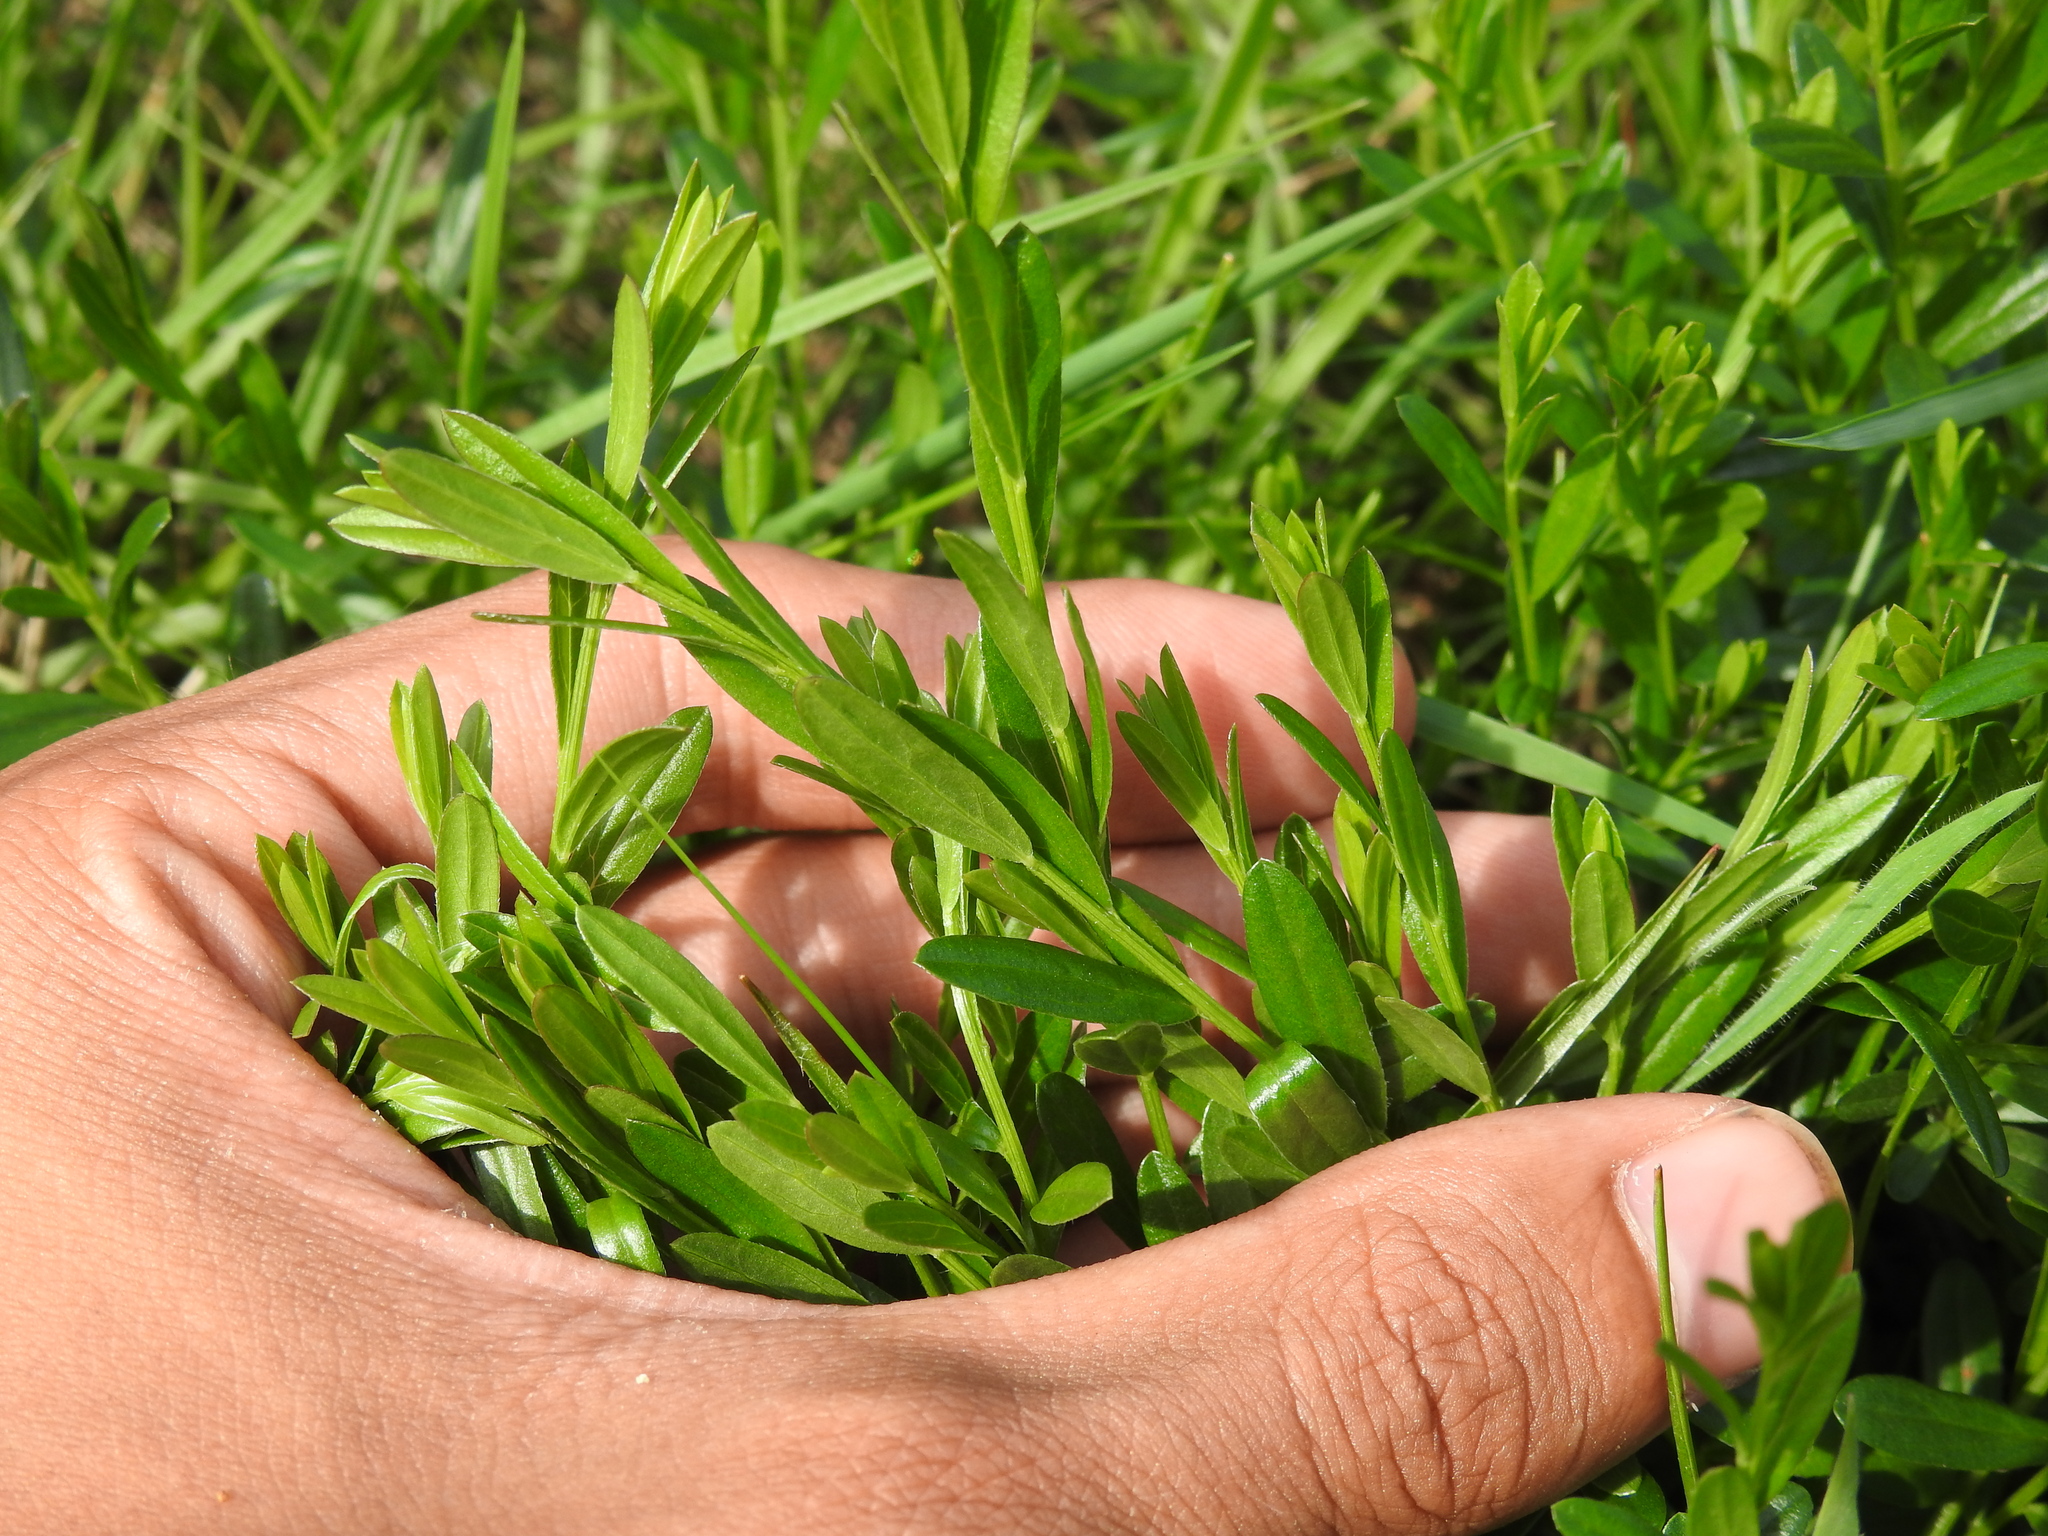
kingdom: Plantae
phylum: Tracheophyta
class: Magnoliopsida
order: Fabales
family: Fabaceae
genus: Genista
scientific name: Genista tinctoria
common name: Dyer's greenweed
